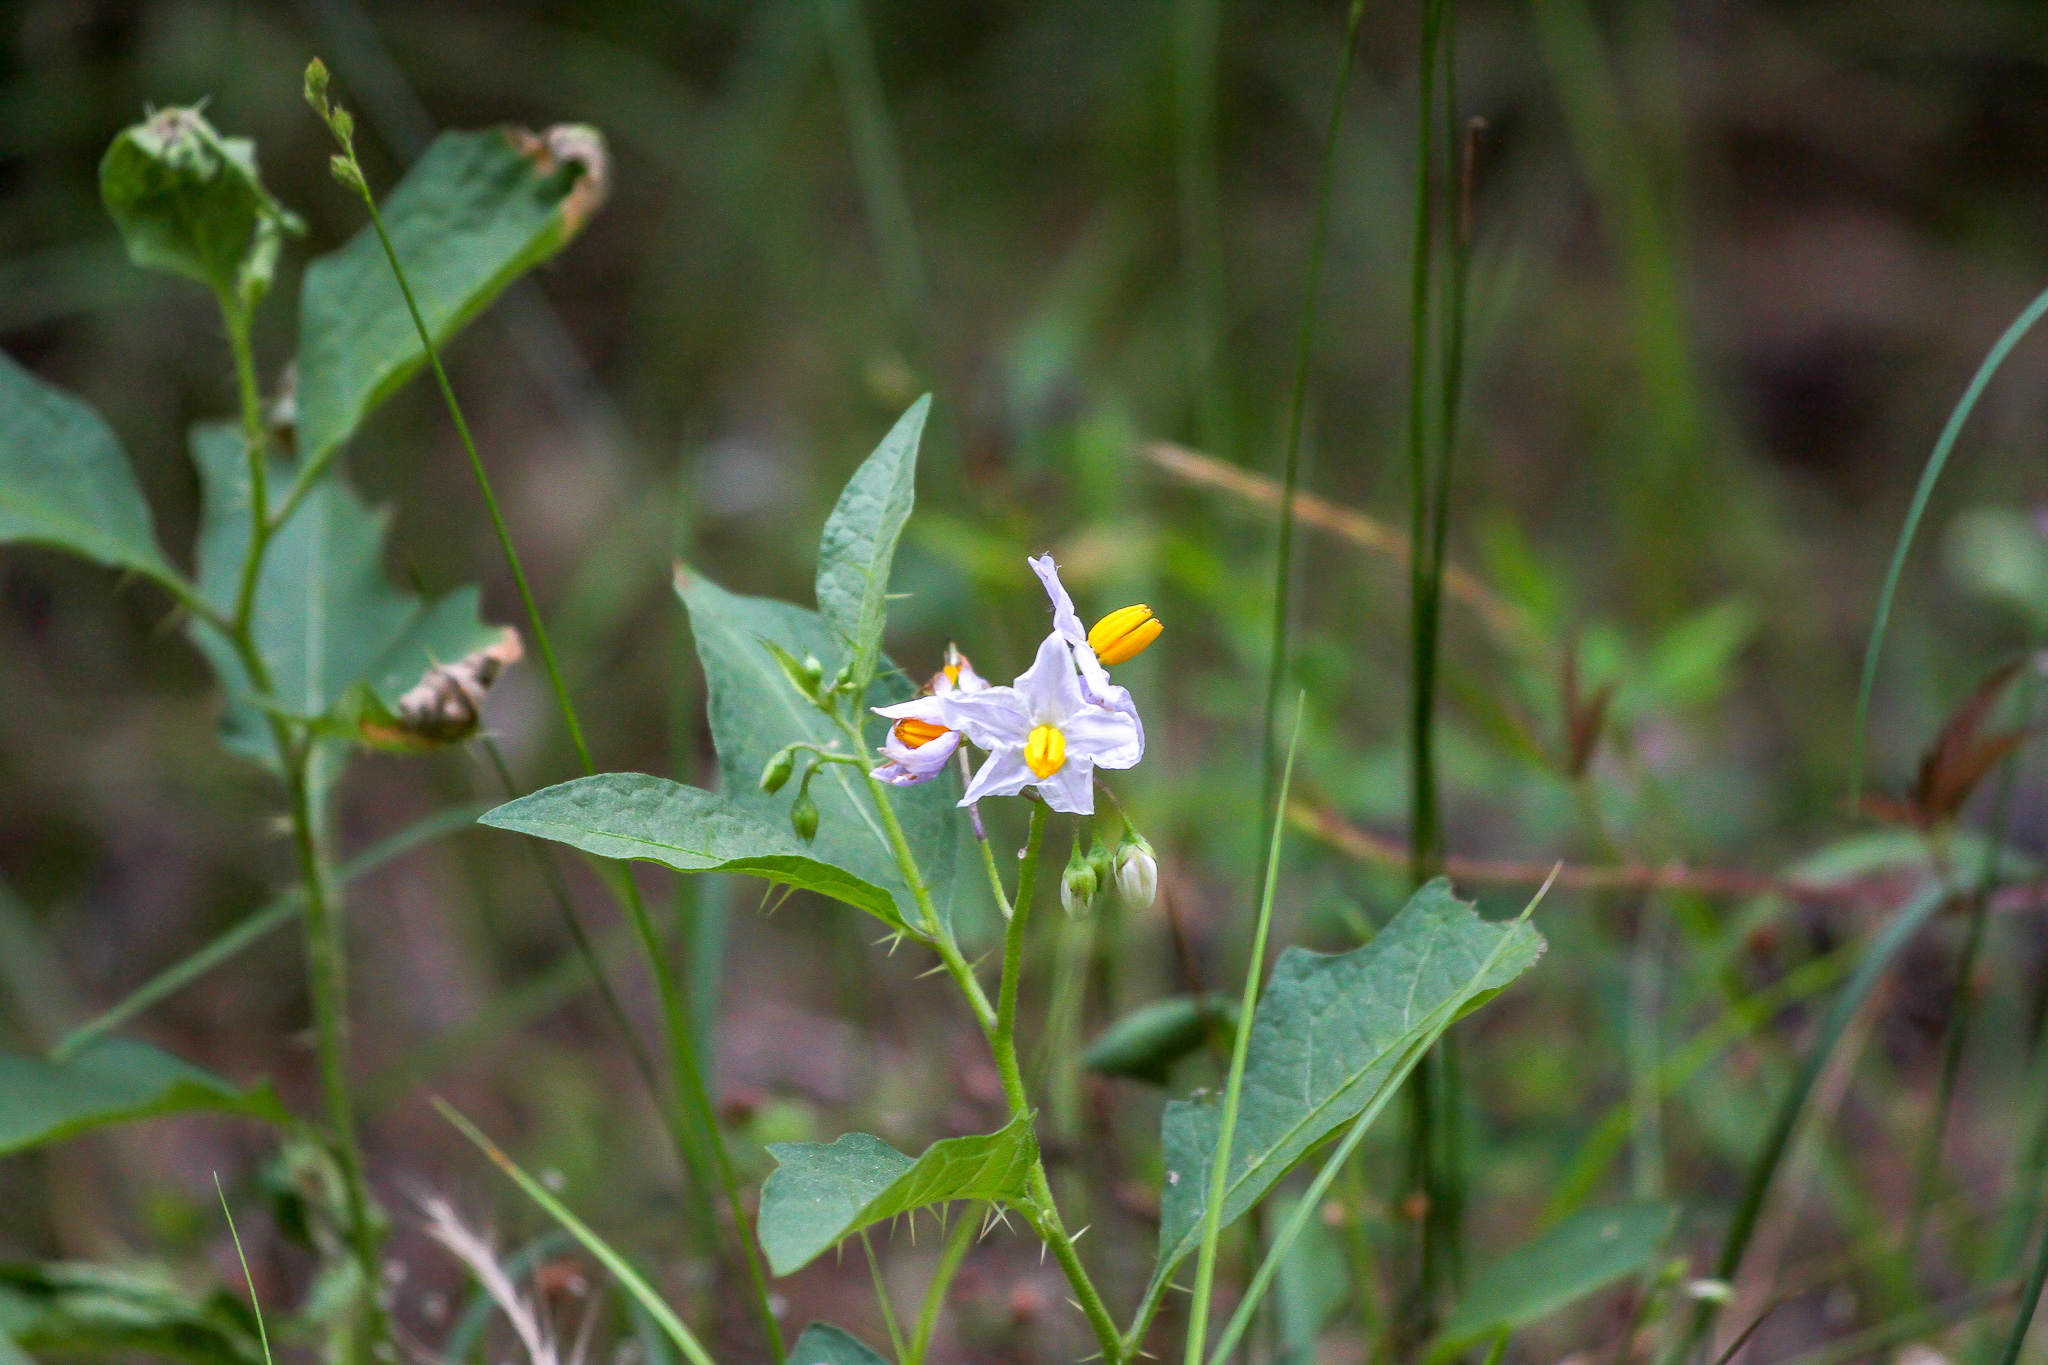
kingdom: Plantae
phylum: Tracheophyta
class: Magnoliopsida
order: Solanales
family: Solanaceae
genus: Solanum
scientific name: Solanum carolinense
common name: Horse-nettle
